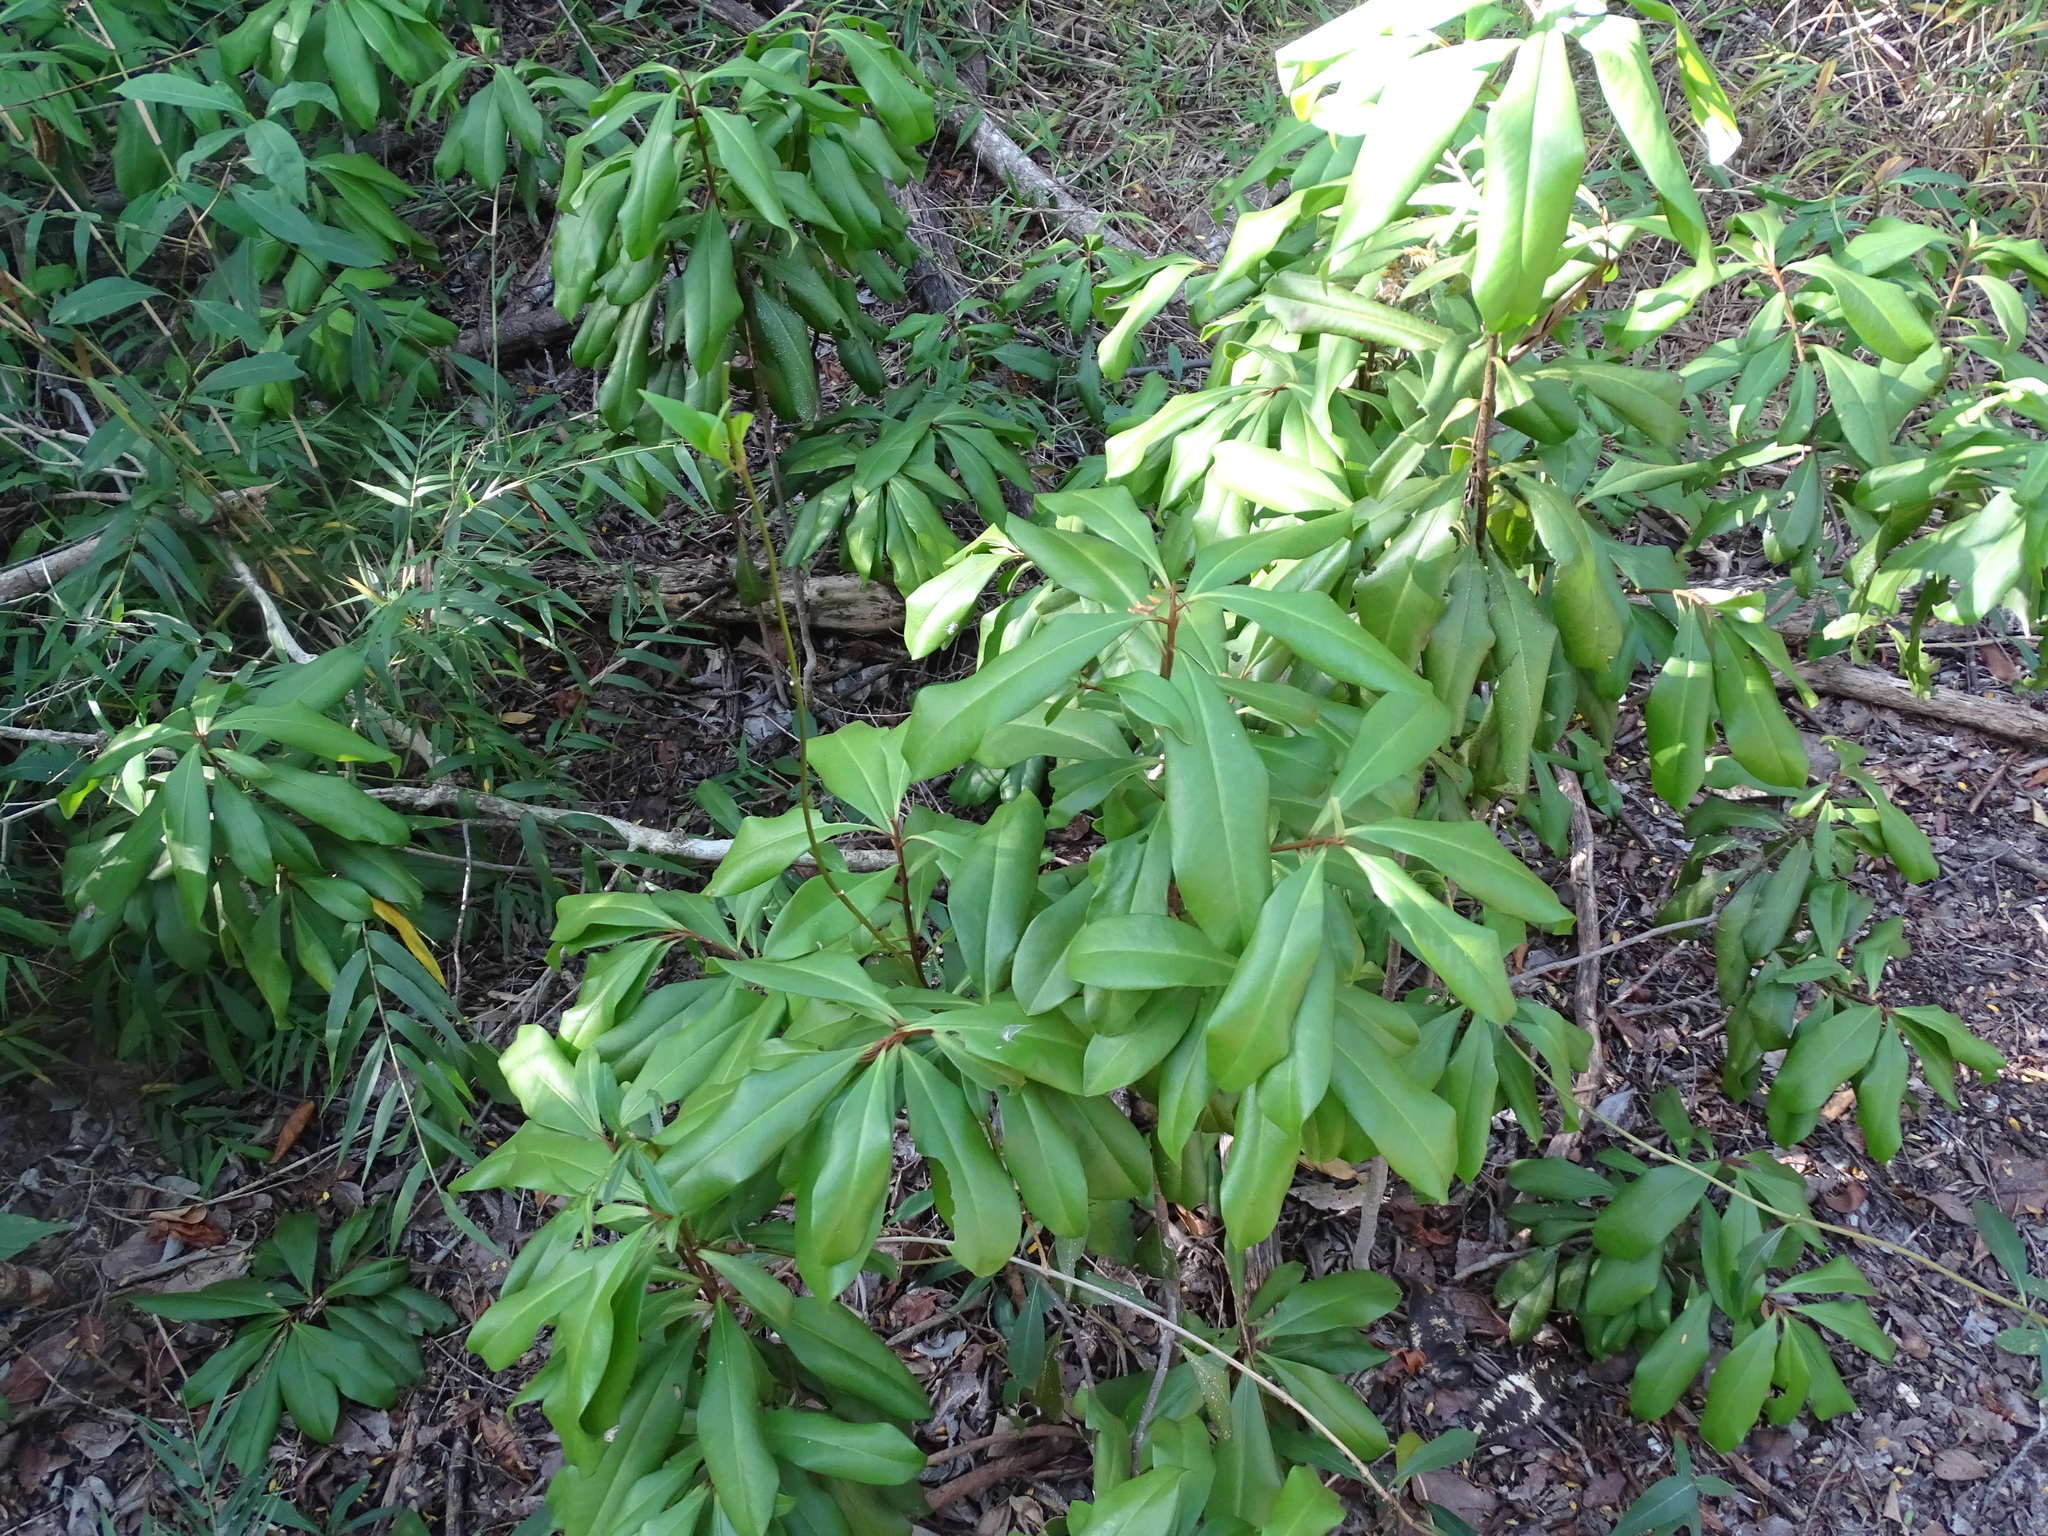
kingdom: Plantae
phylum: Tracheophyta
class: Magnoliopsida
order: Ericales
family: Primulaceae
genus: Ardisia
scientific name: Ardisia escallonioides
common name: Island marlberry
